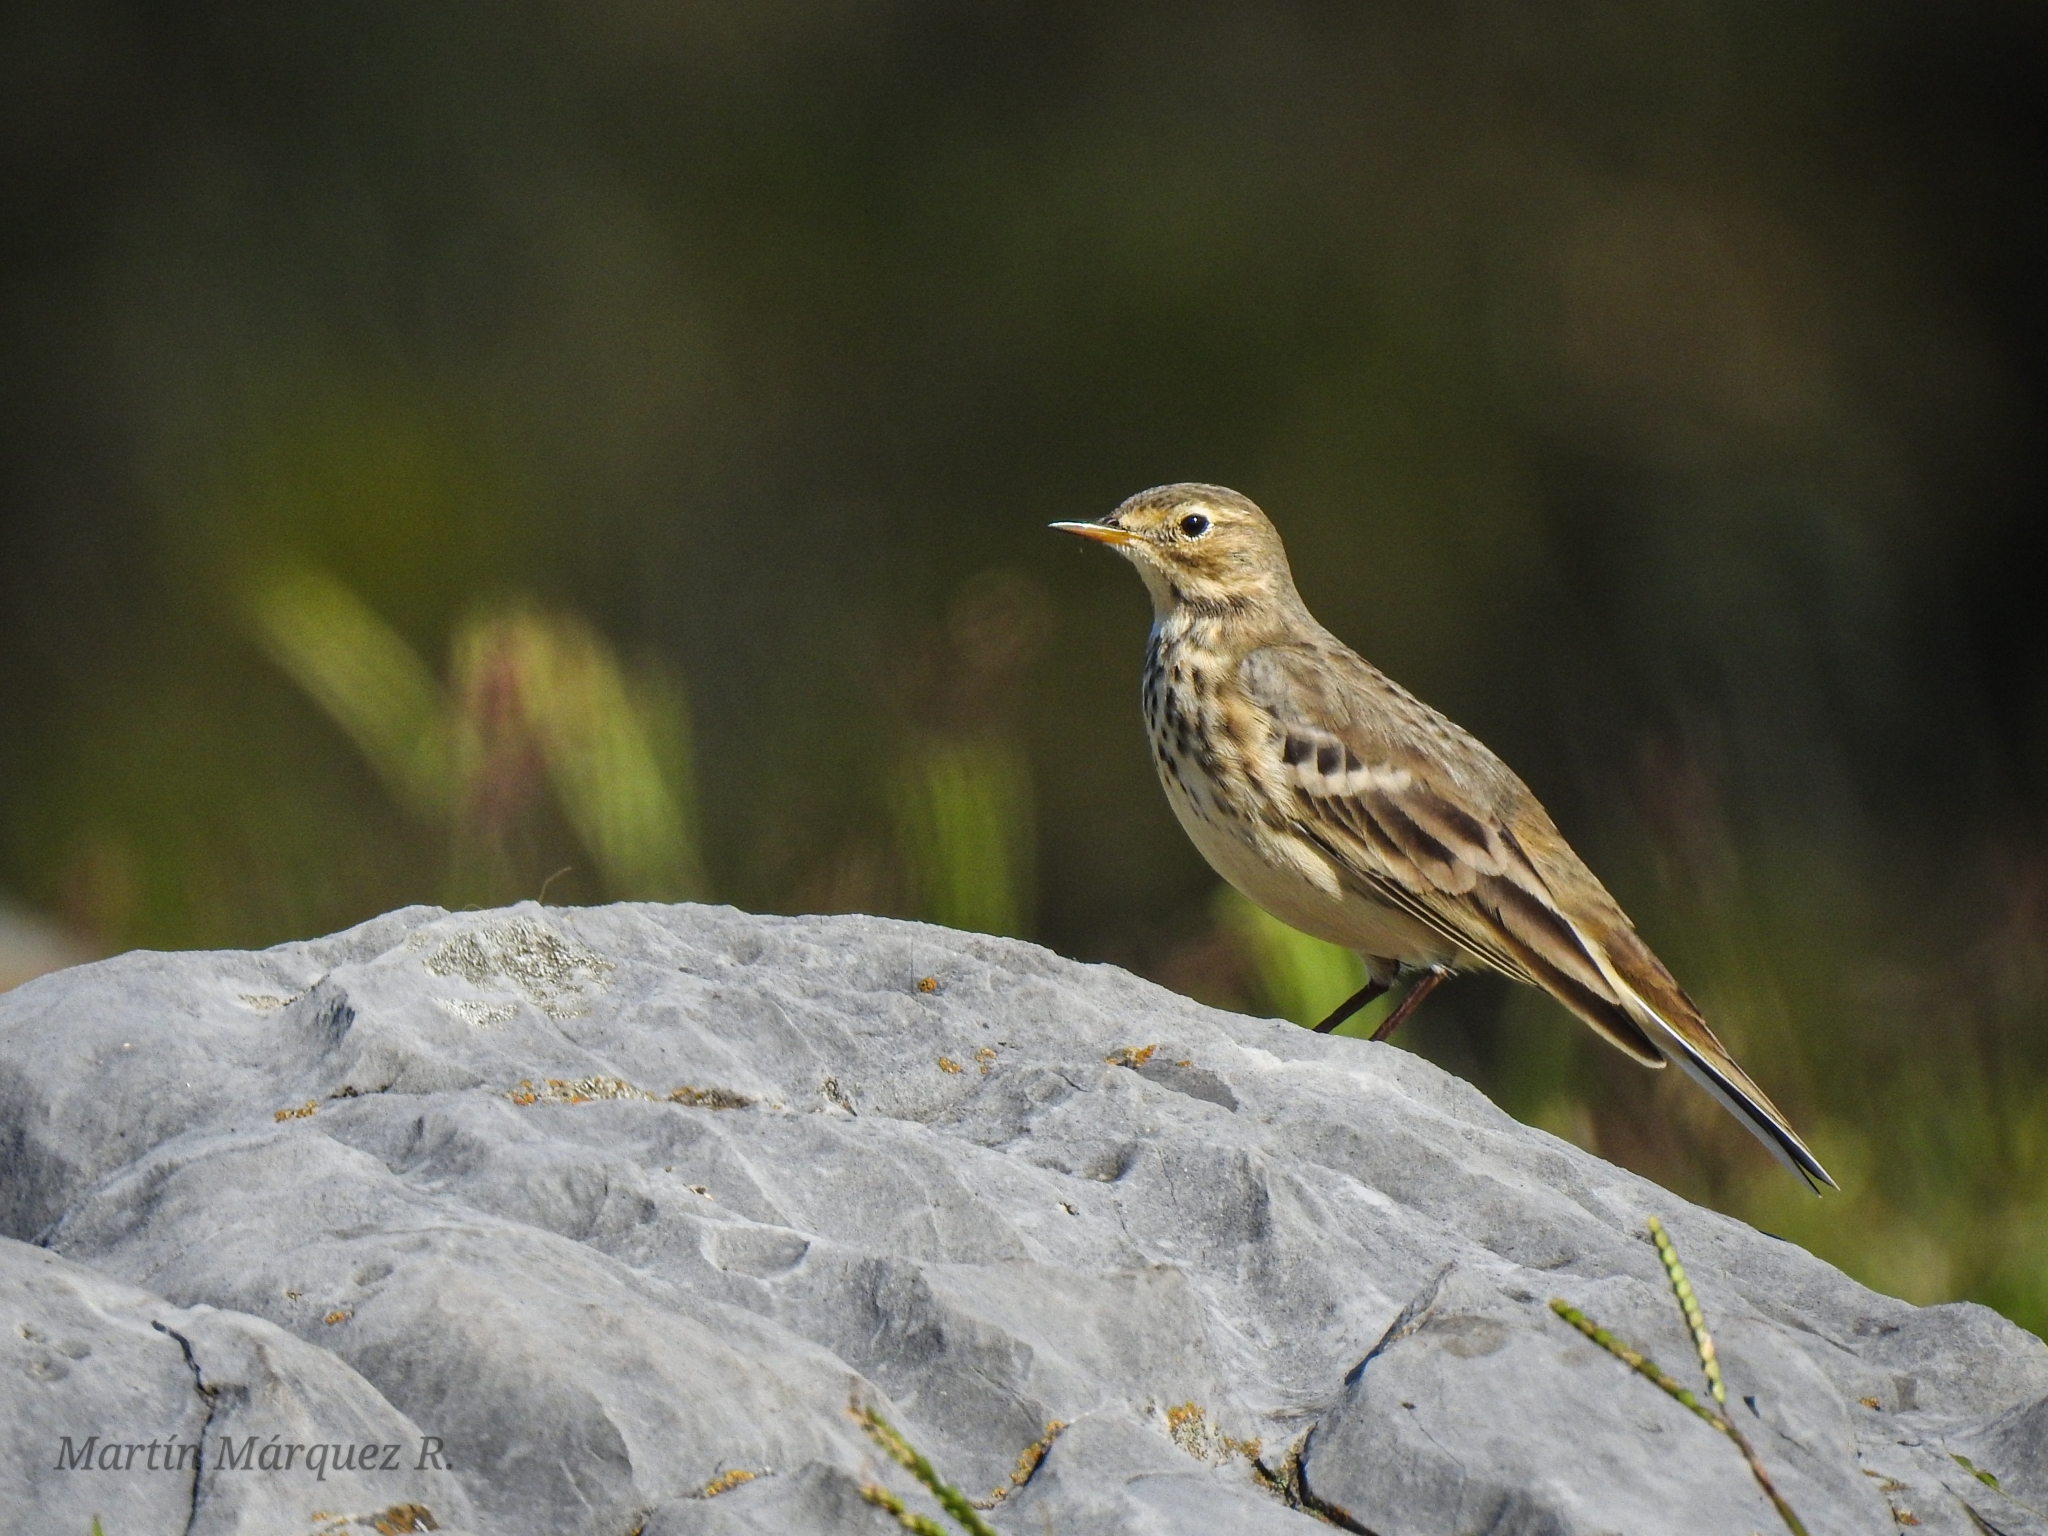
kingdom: Animalia
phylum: Chordata
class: Aves
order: Passeriformes
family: Motacillidae
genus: Anthus
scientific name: Anthus rubescens
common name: Buff-bellied pipit
